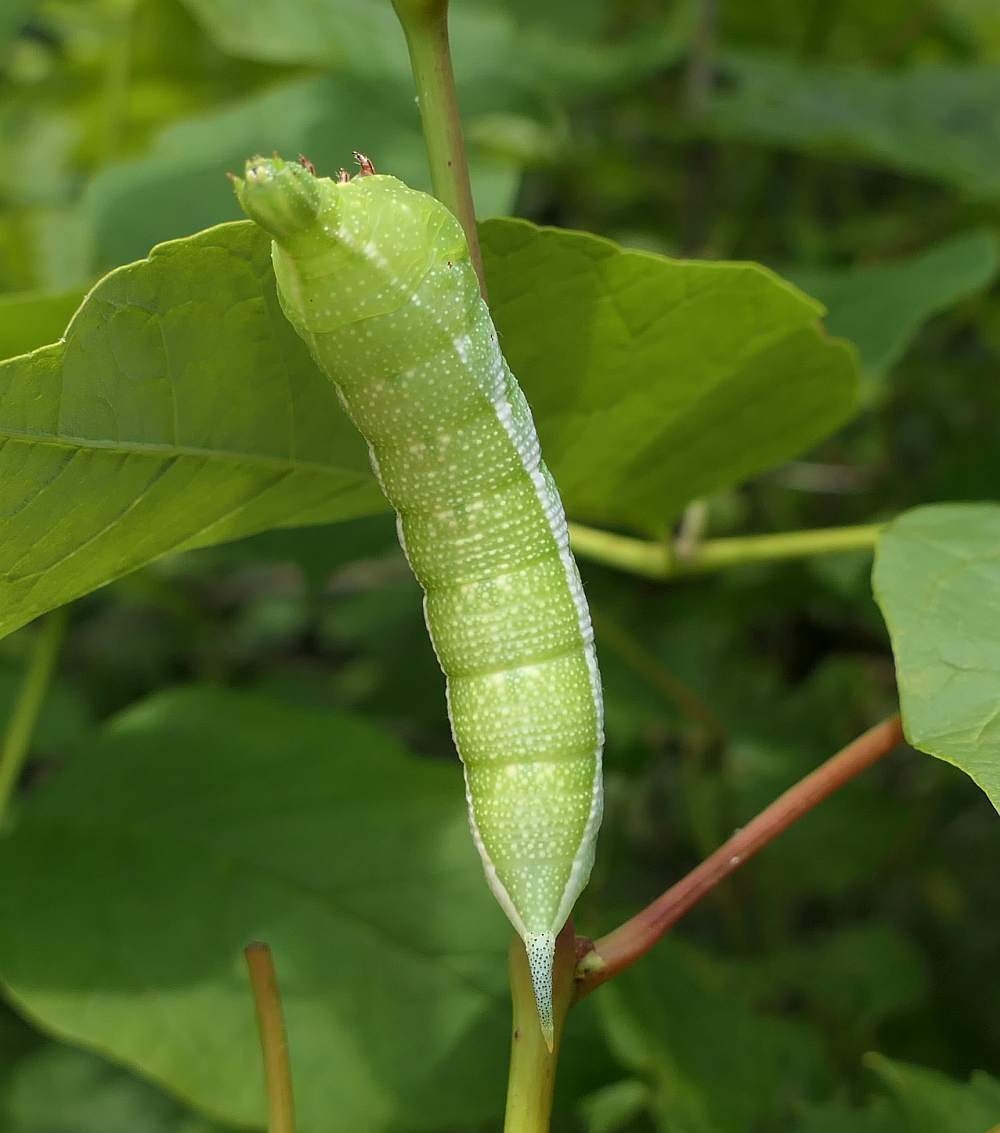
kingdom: Animalia
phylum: Arthropoda
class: Insecta
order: Lepidoptera
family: Sphingidae
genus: Darapsa
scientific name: Darapsa myron
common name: Hog sphinx
